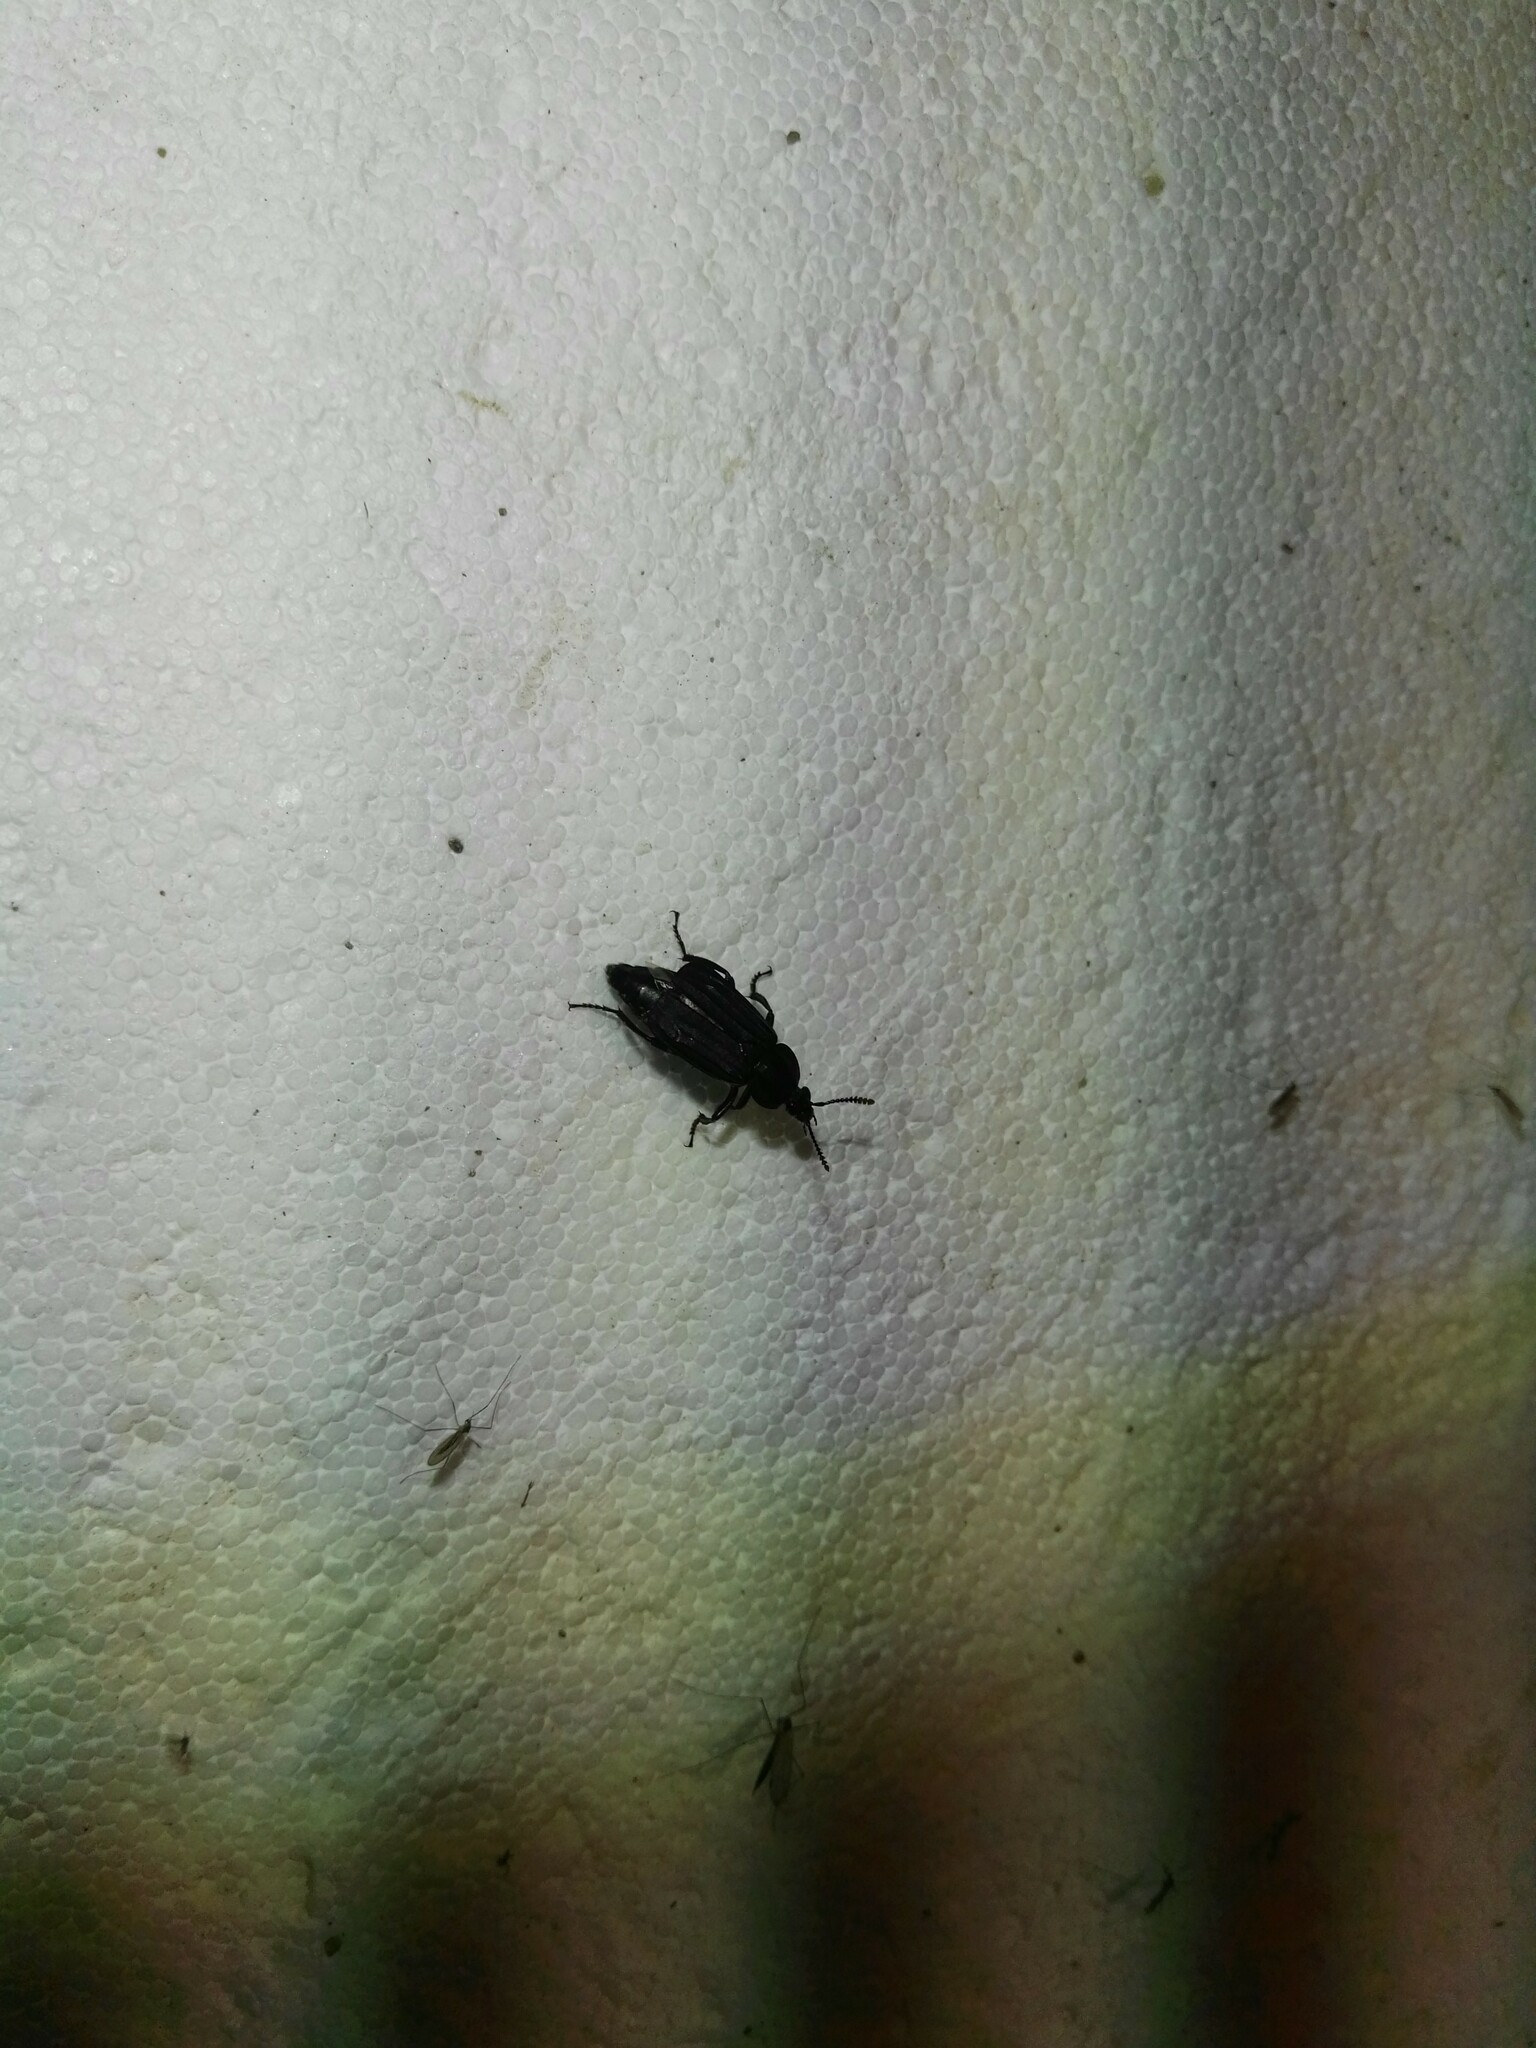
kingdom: Animalia
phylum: Arthropoda
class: Insecta
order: Coleoptera
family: Staphylinidae
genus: Necrodes
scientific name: Necrodes littoralis
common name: Shore sexton beetle
